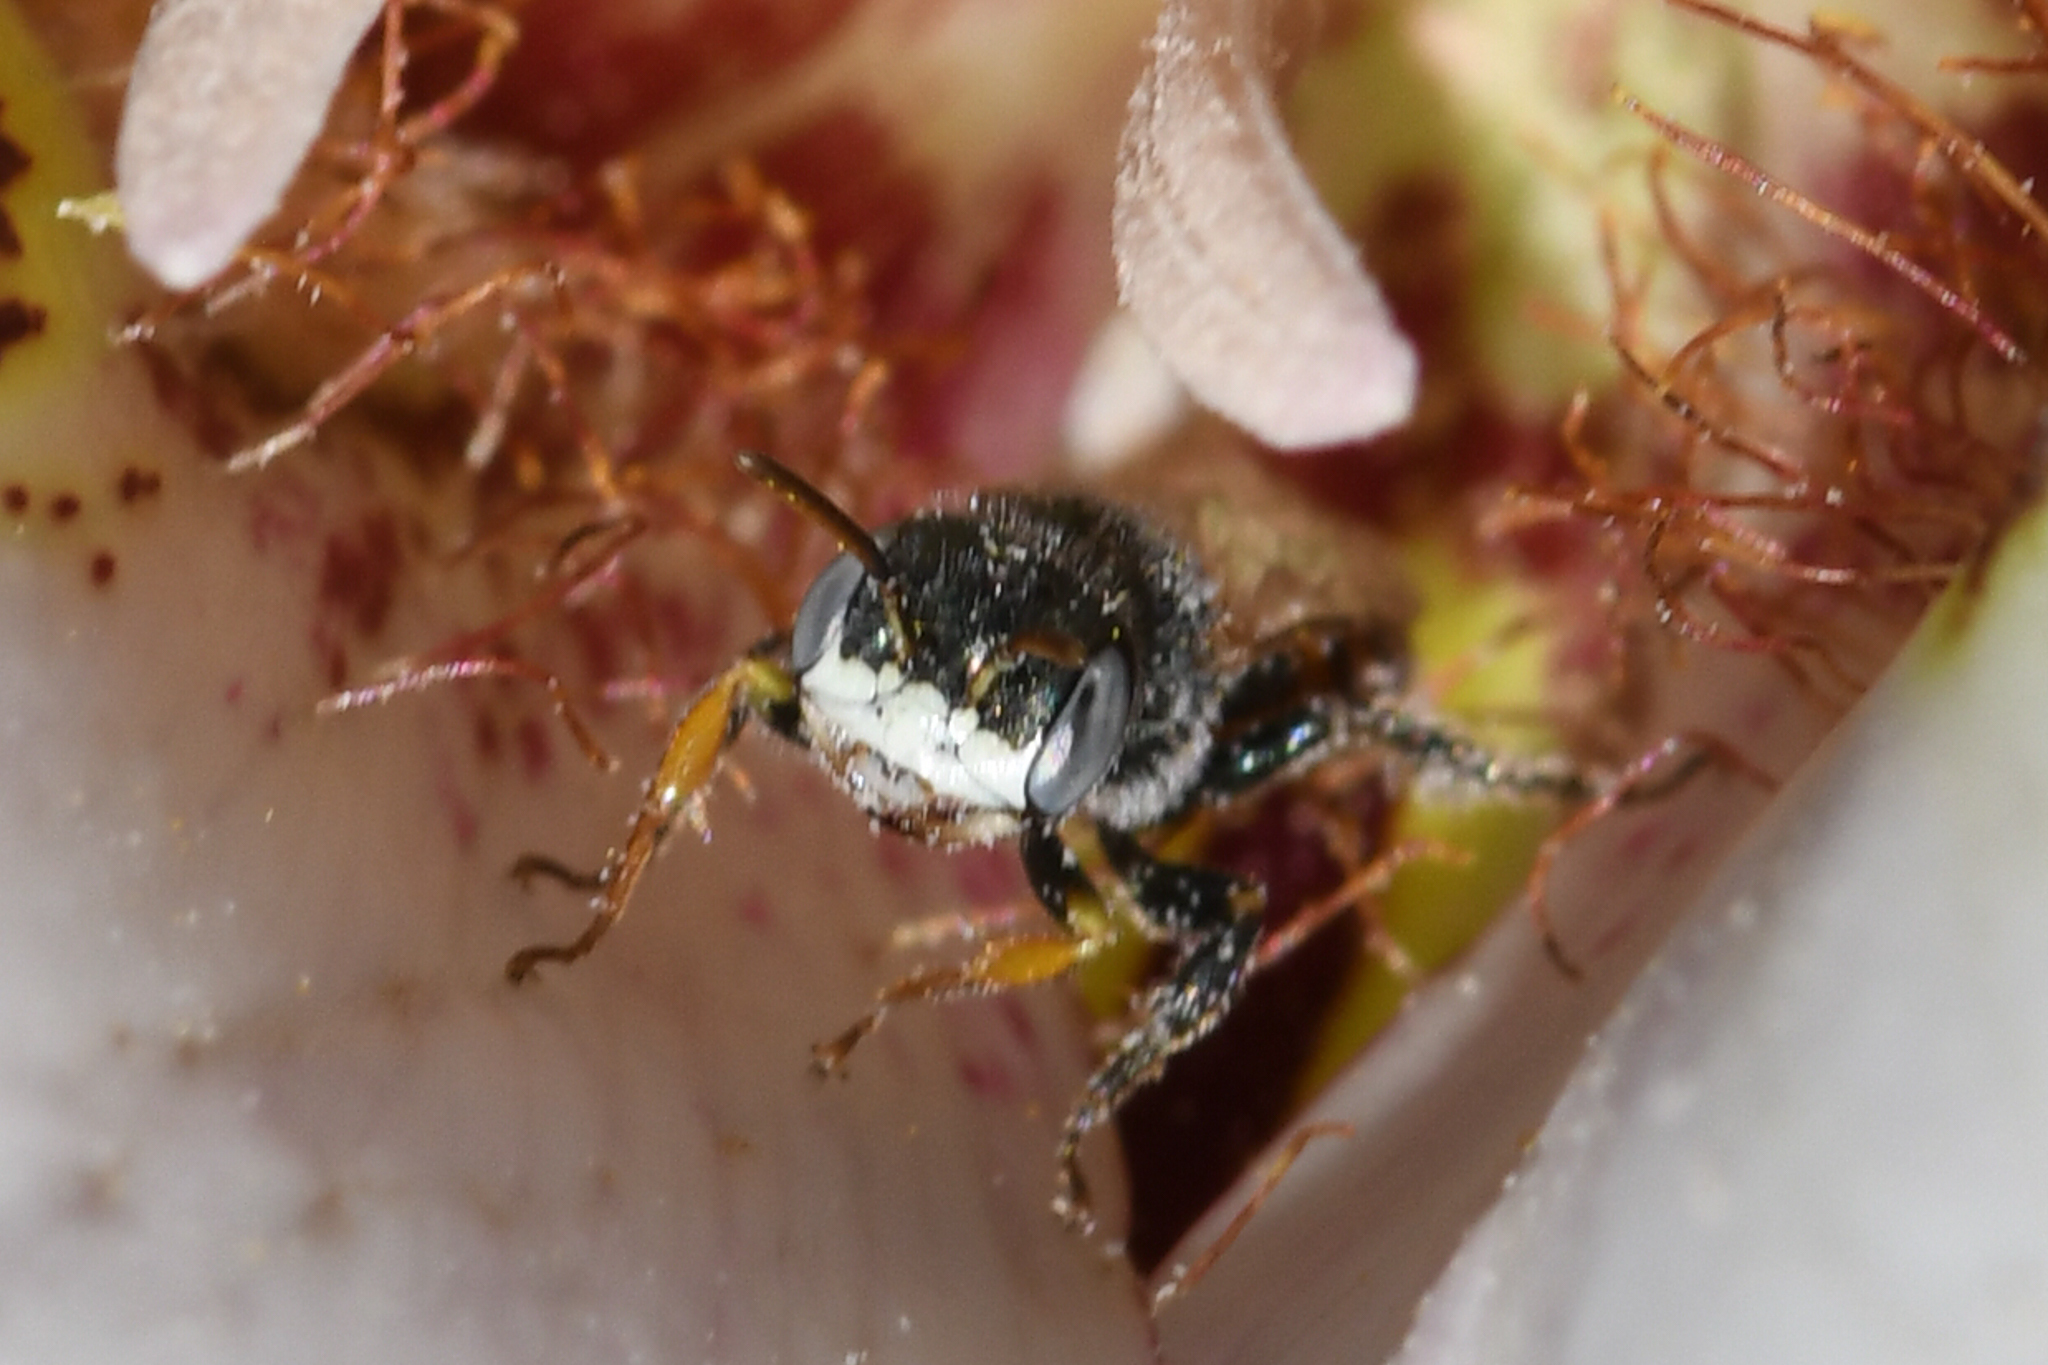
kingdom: Animalia
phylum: Arthropoda
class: Insecta
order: Hymenoptera
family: Andrenidae
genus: Perdita
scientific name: Perdita californica
